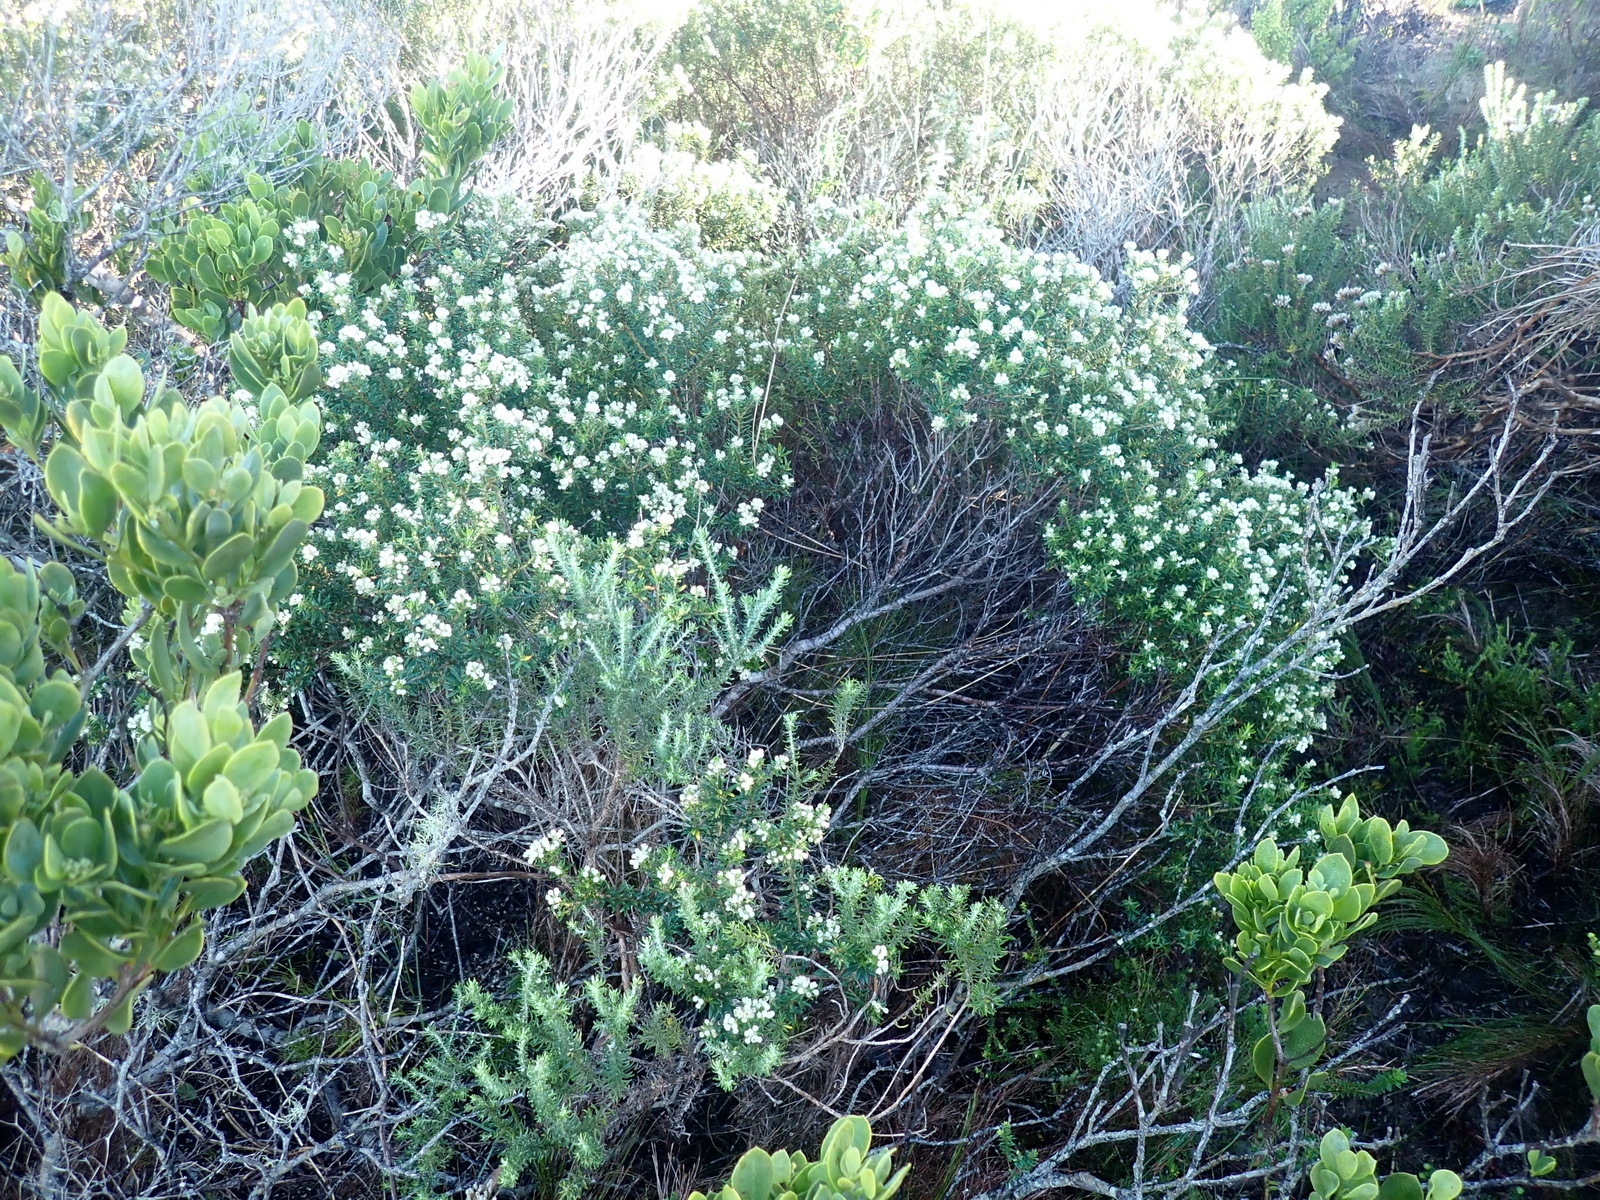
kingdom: Plantae
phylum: Tracheophyta
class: Magnoliopsida
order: Rosales
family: Rhamnaceae
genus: Phylica
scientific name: Phylica axillaris
